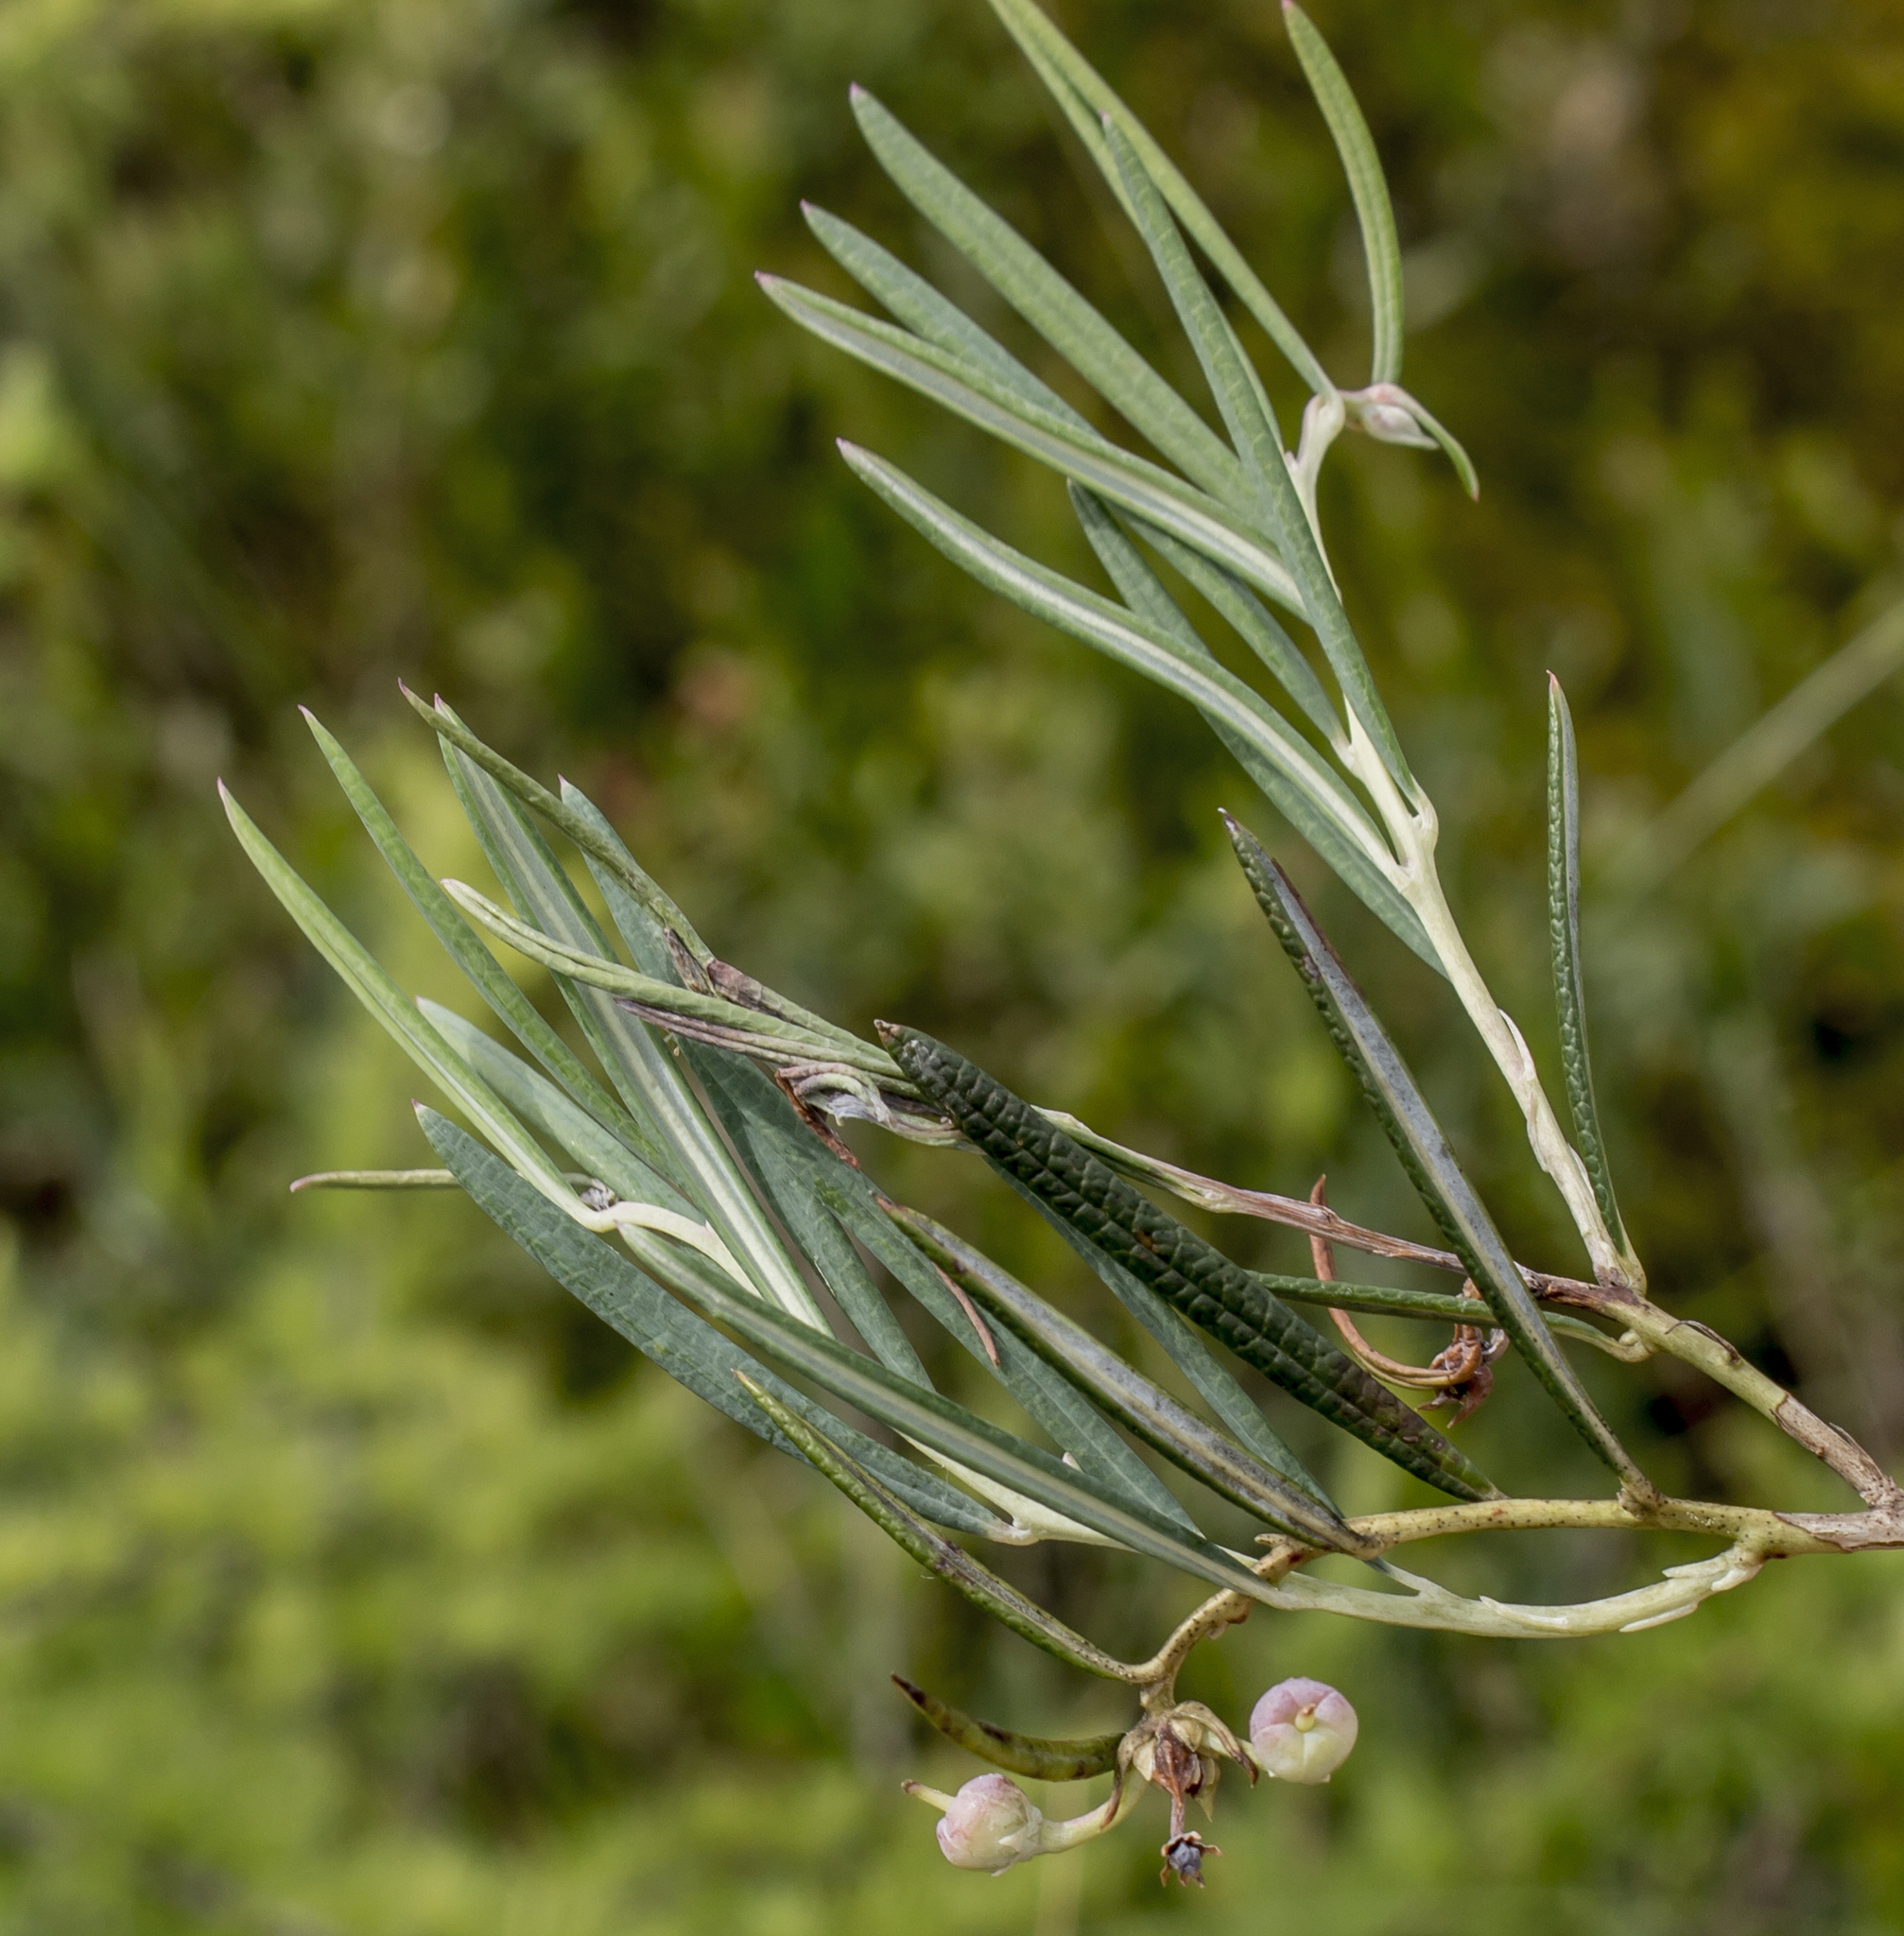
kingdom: Plantae
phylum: Tracheophyta
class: Magnoliopsida
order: Ericales
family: Ericaceae
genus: Andromeda
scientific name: Andromeda polifolia
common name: Bog-rosemary
